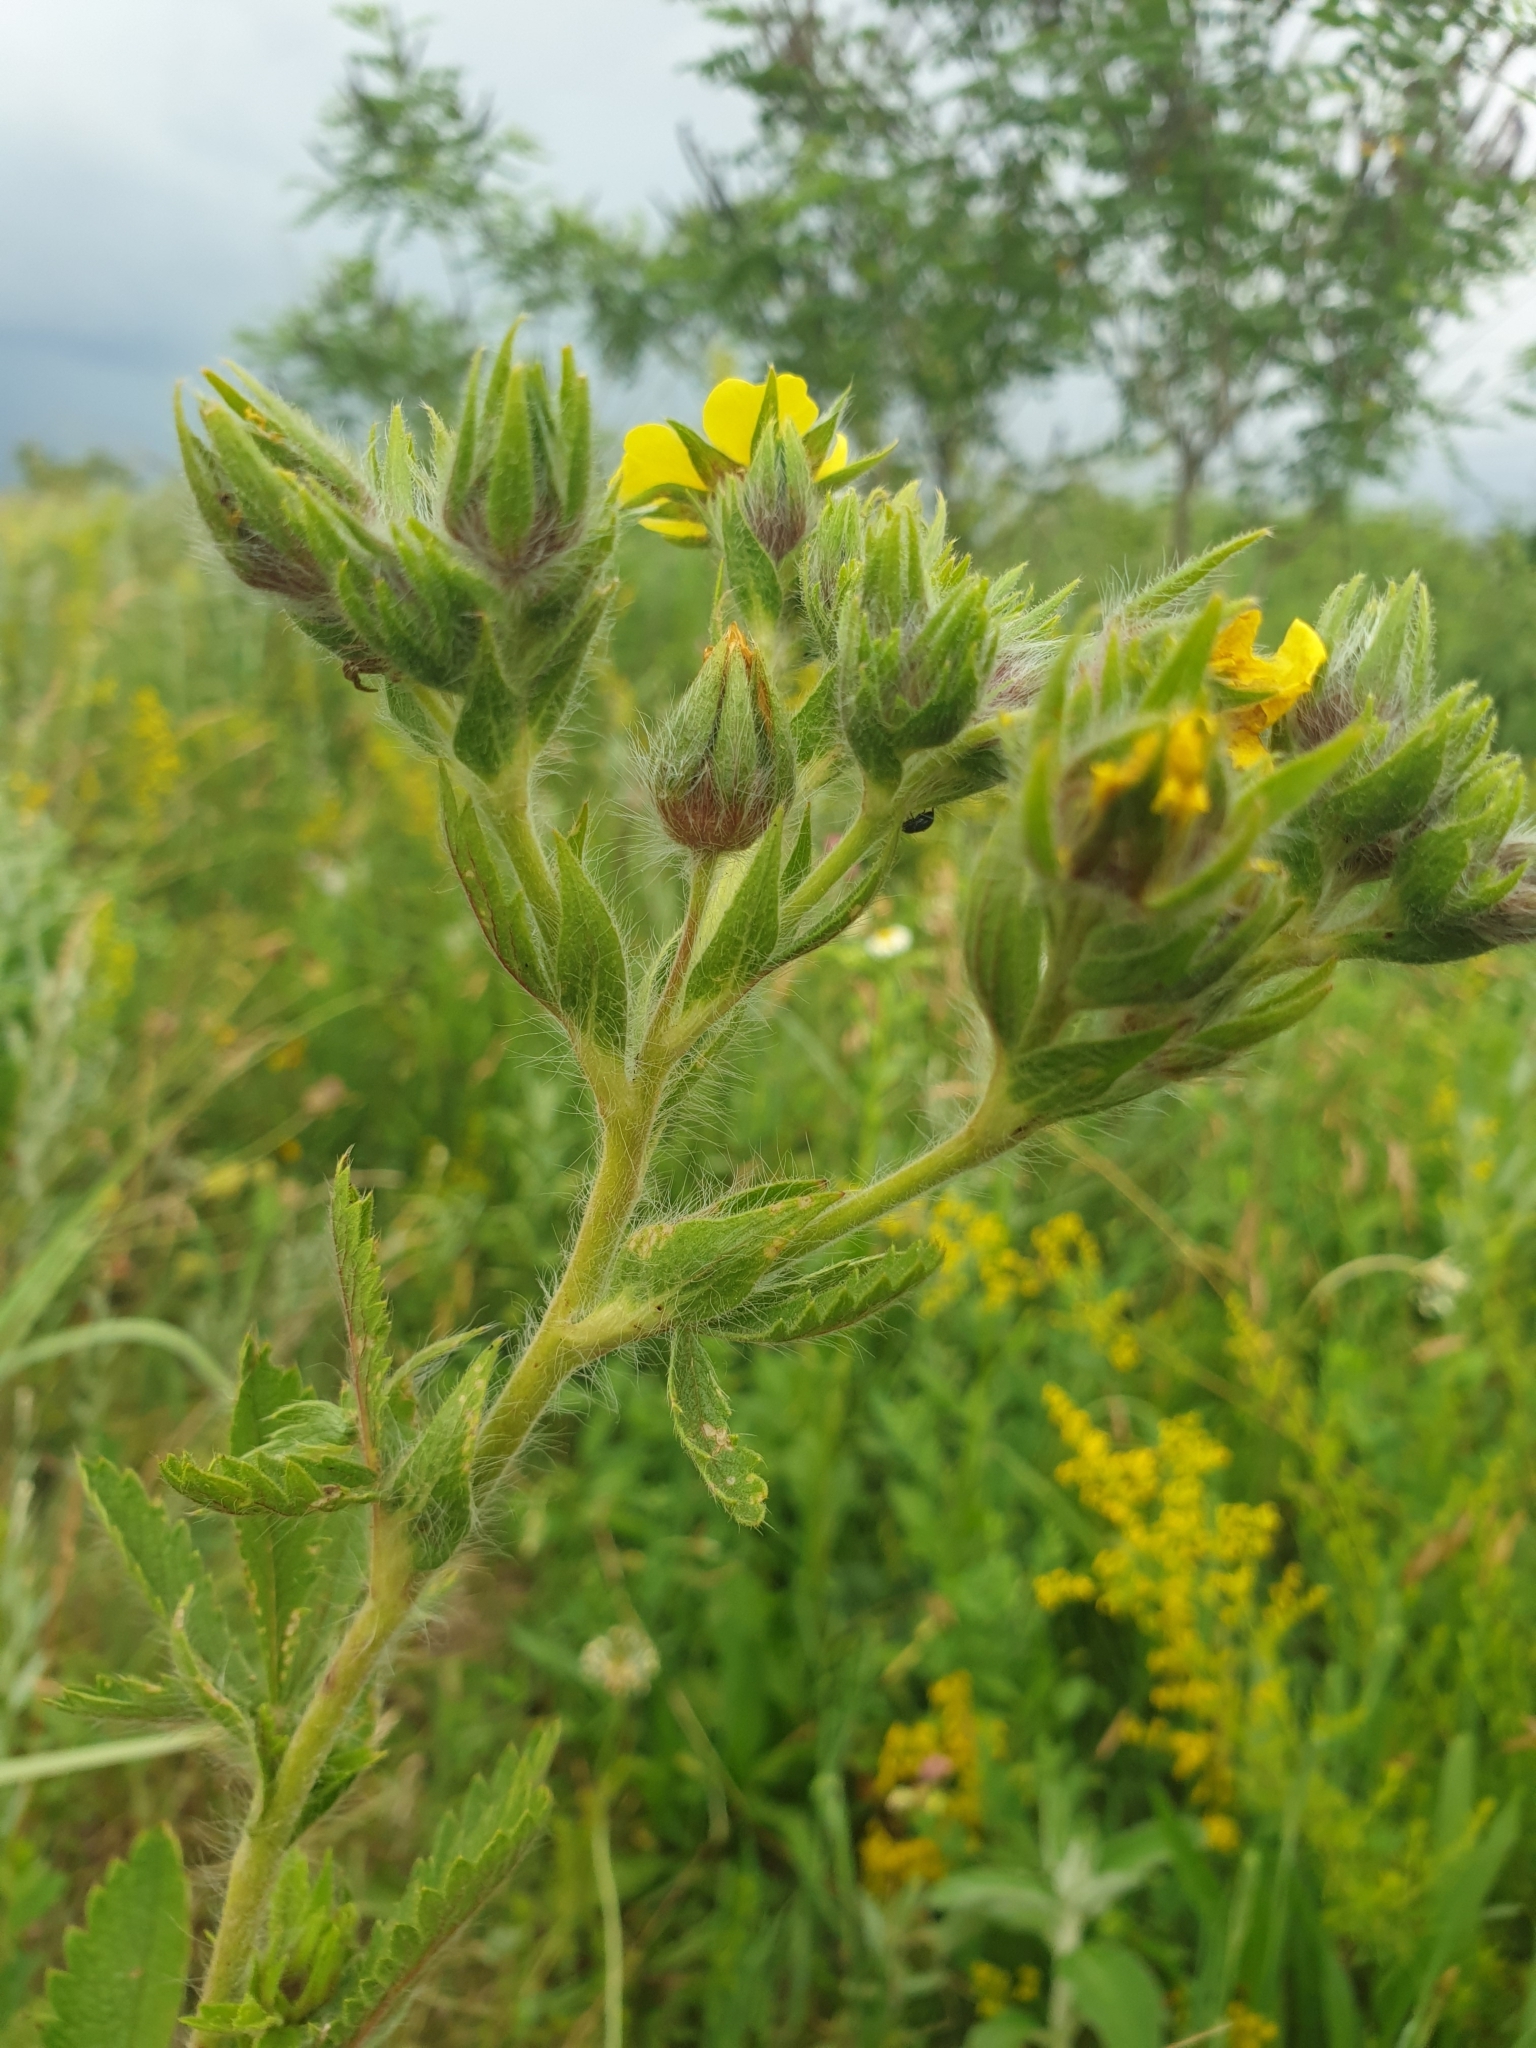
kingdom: Plantae
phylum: Tracheophyta
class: Magnoliopsida
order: Rosales
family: Rosaceae
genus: Potentilla
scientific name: Potentilla recta
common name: Sulphur cinquefoil
